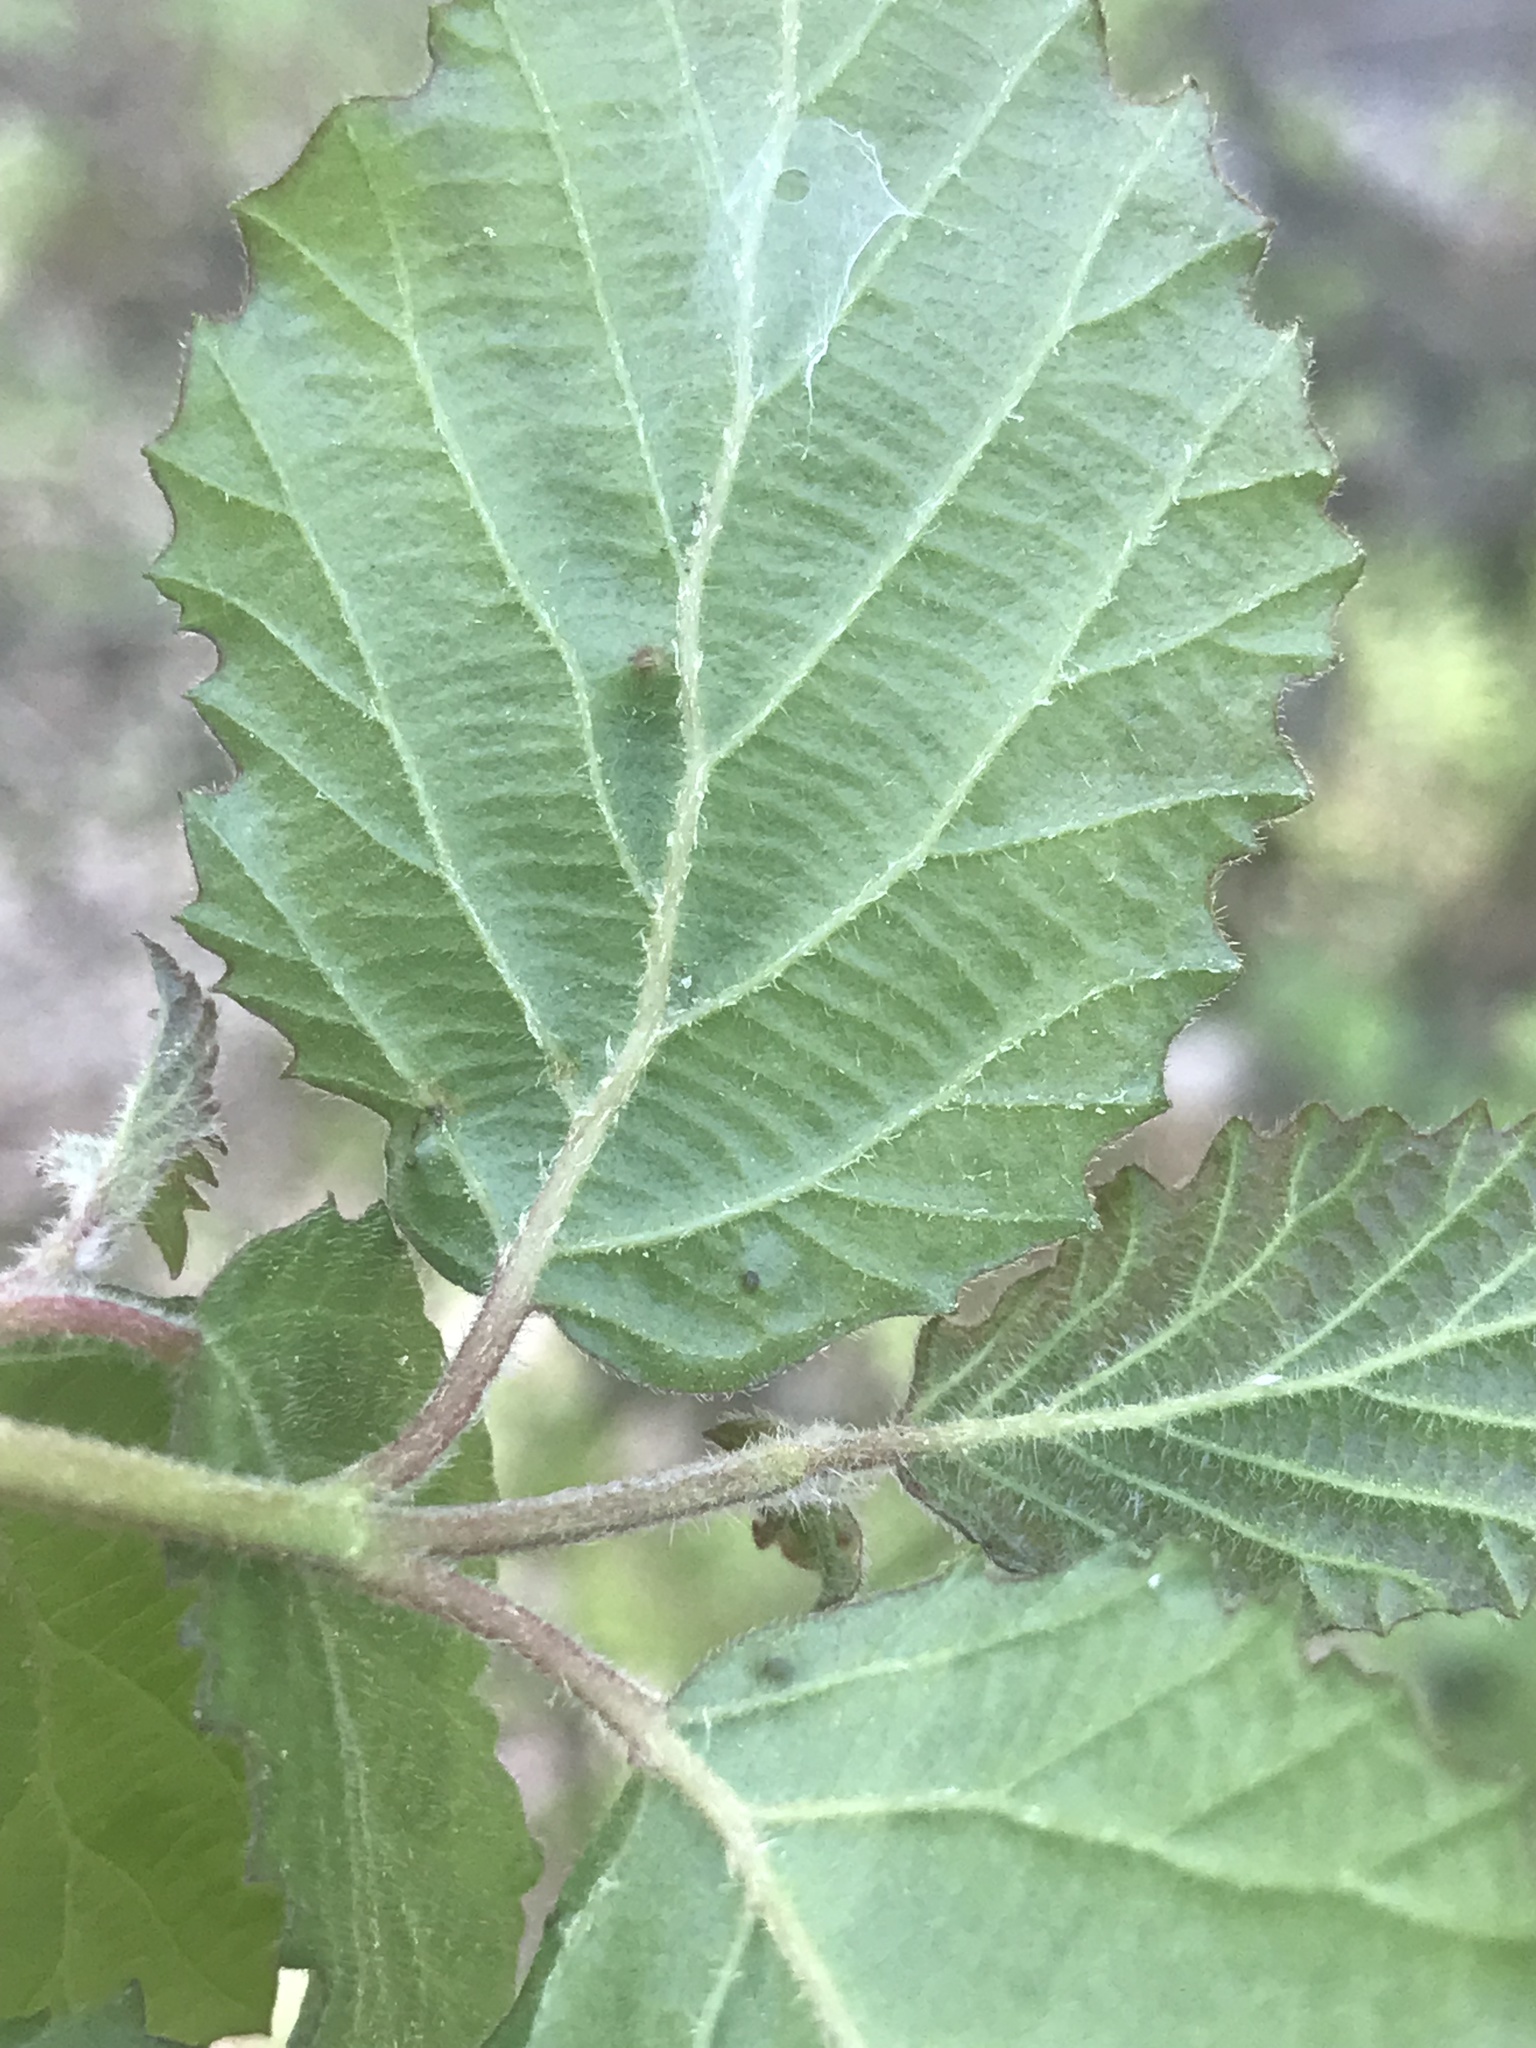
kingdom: Plantae
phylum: Tracheophyta
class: Magnoliopsida
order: Dipsacales
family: Viburnaceae
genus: Viburnum
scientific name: Viburnum dilatatum
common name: Linden arrowwood
